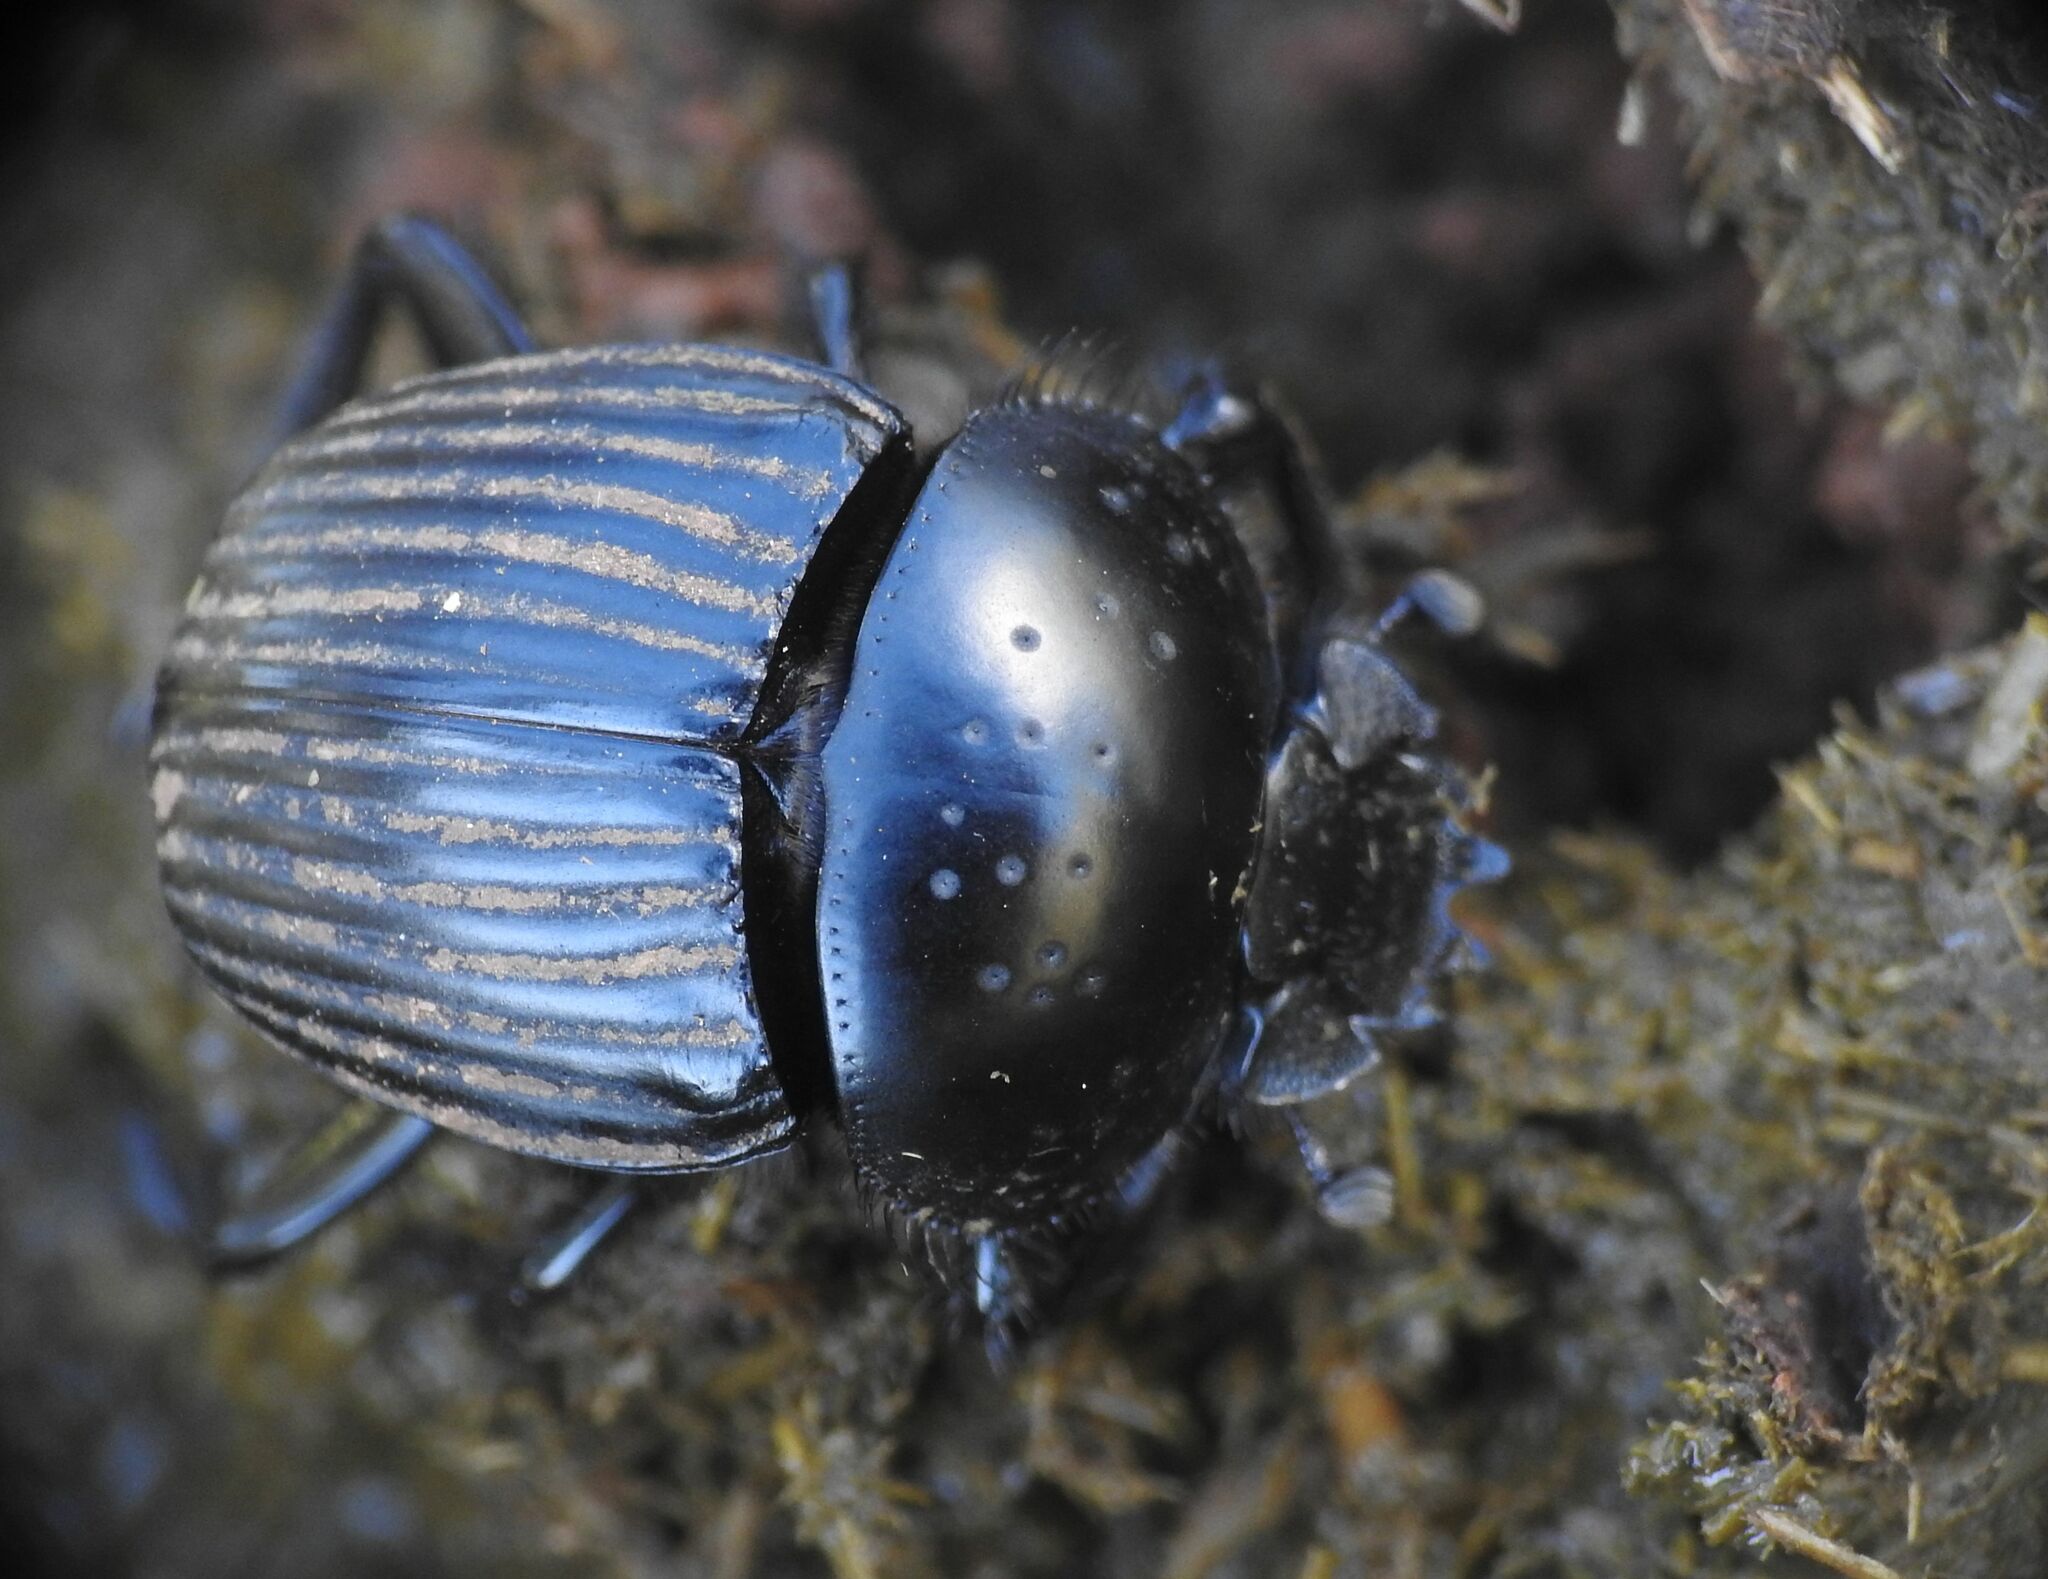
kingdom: Animalia
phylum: Arthropoda
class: Insecta
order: Coleoptera
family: Scarabaeidae
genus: Ateuchetus
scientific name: Ateuchetus laticollis
